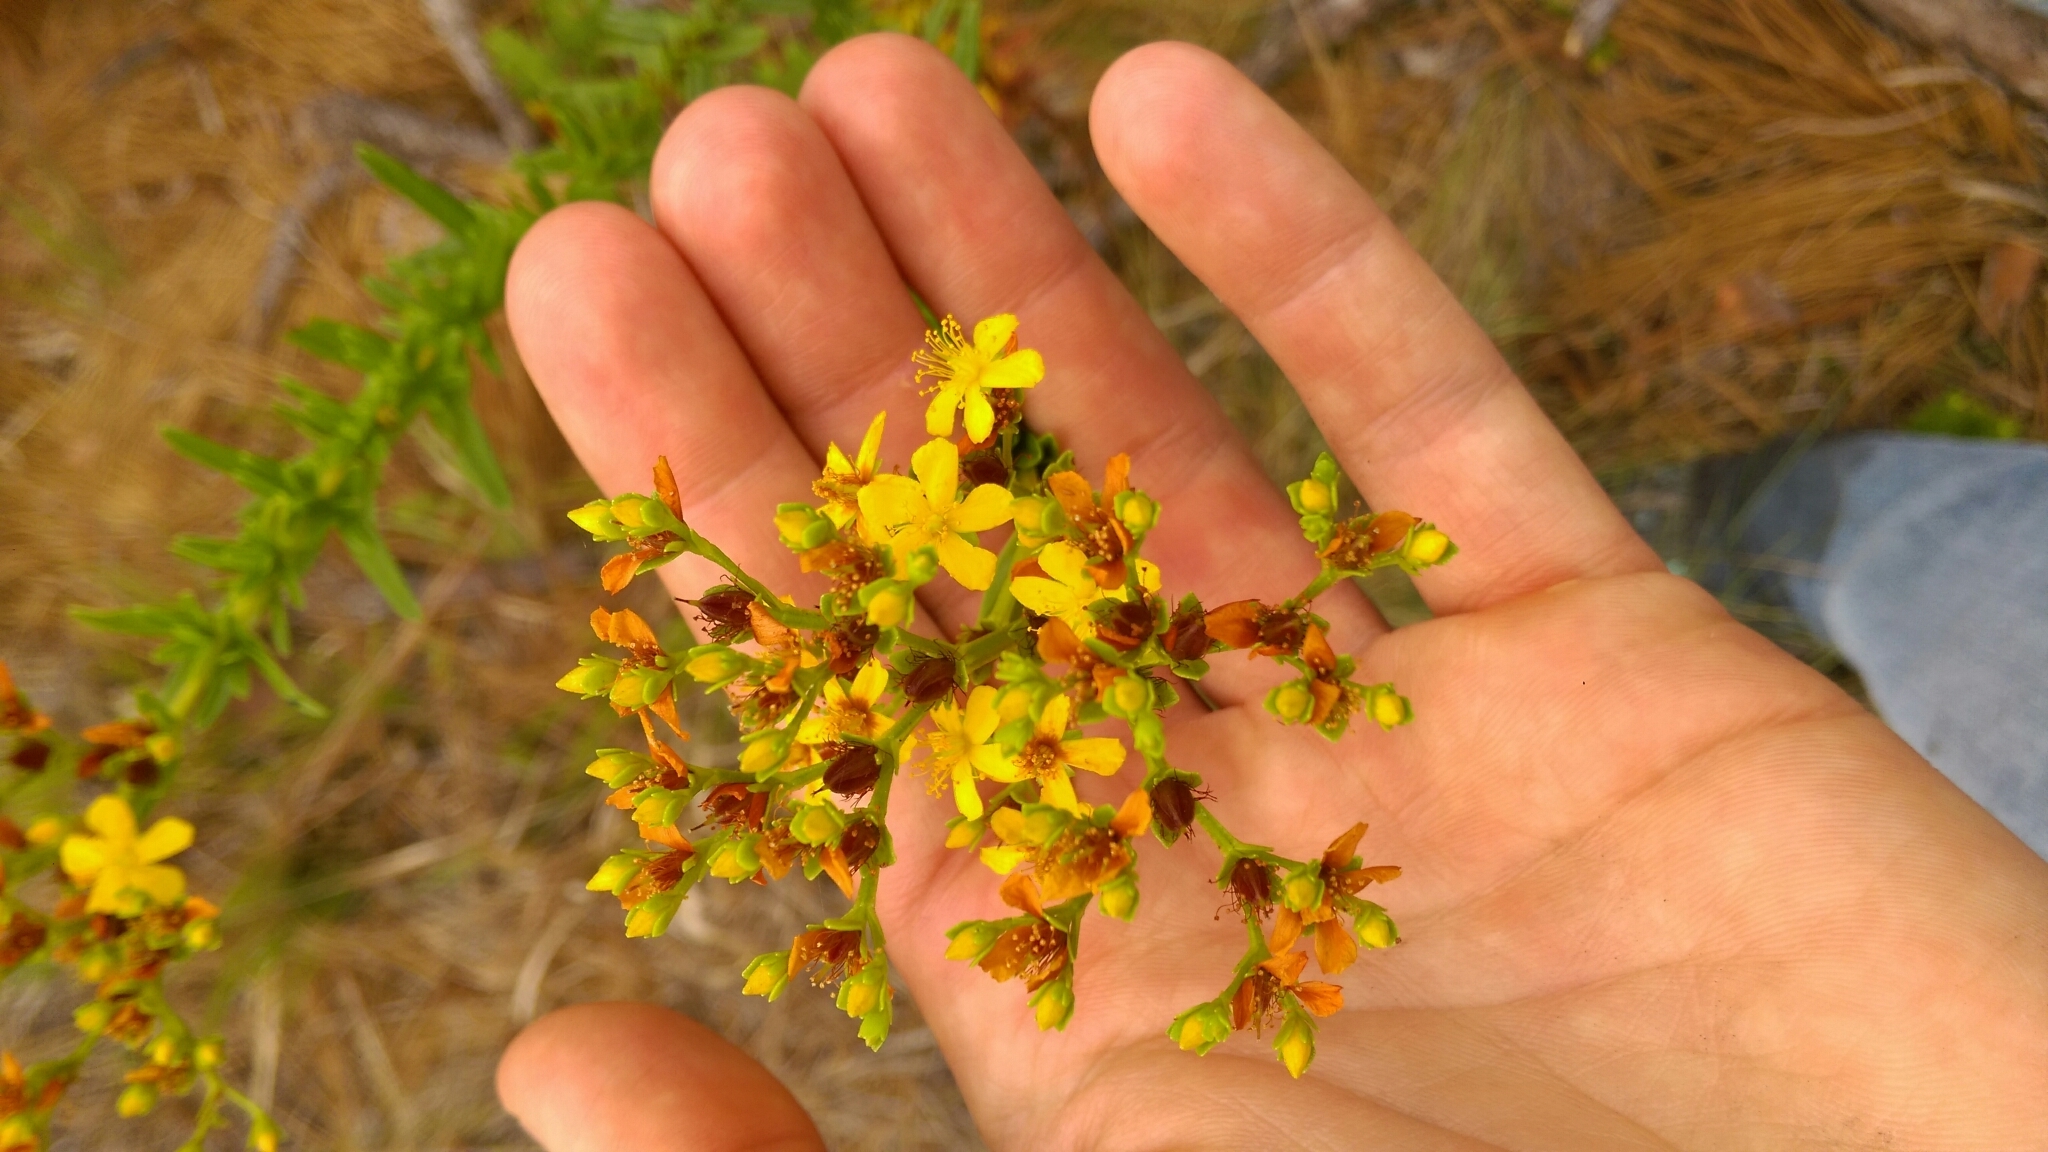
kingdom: Plantae
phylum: Tracheophyta
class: Magnoliopsida
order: Malpighiales
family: Hypericaceae
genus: Hypericum
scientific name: Hypericum cistifolium
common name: Round-pod st. john's-wort
